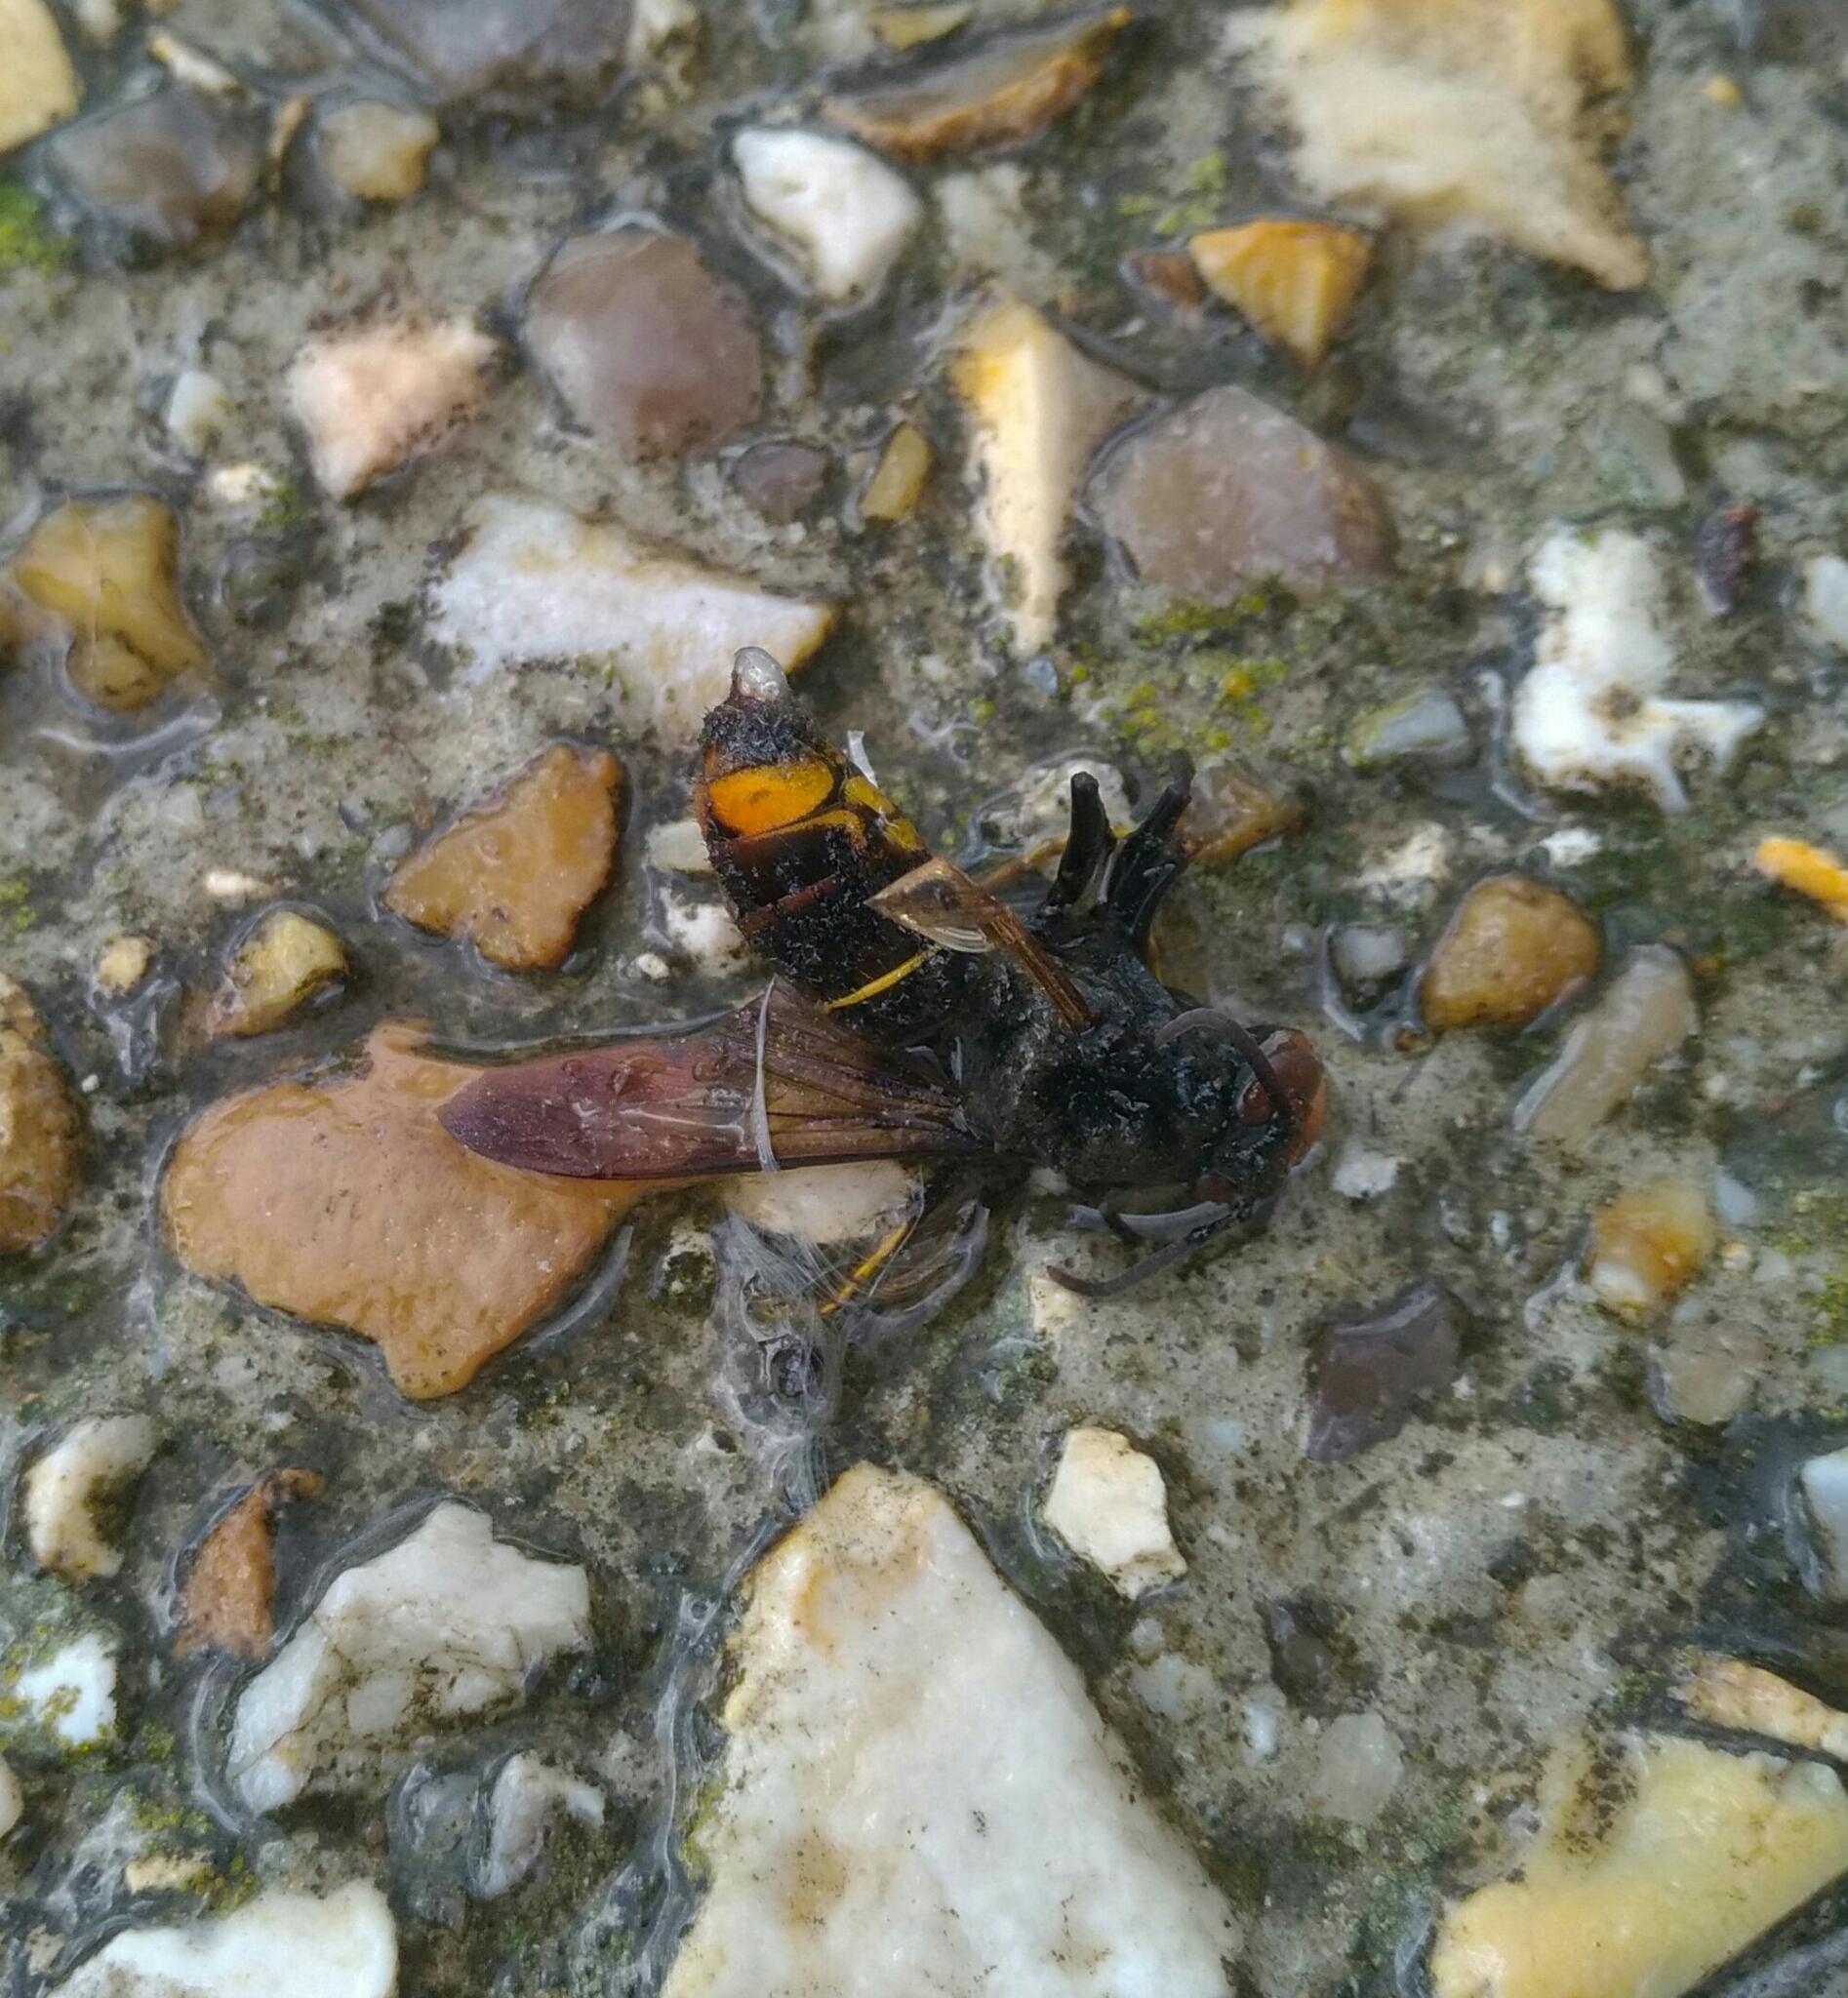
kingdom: Animalia
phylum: Arthropoda
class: Insecta
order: Hymenoptera
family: Vespidae
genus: Vespa
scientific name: Vespa velutina
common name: Asian hornet
